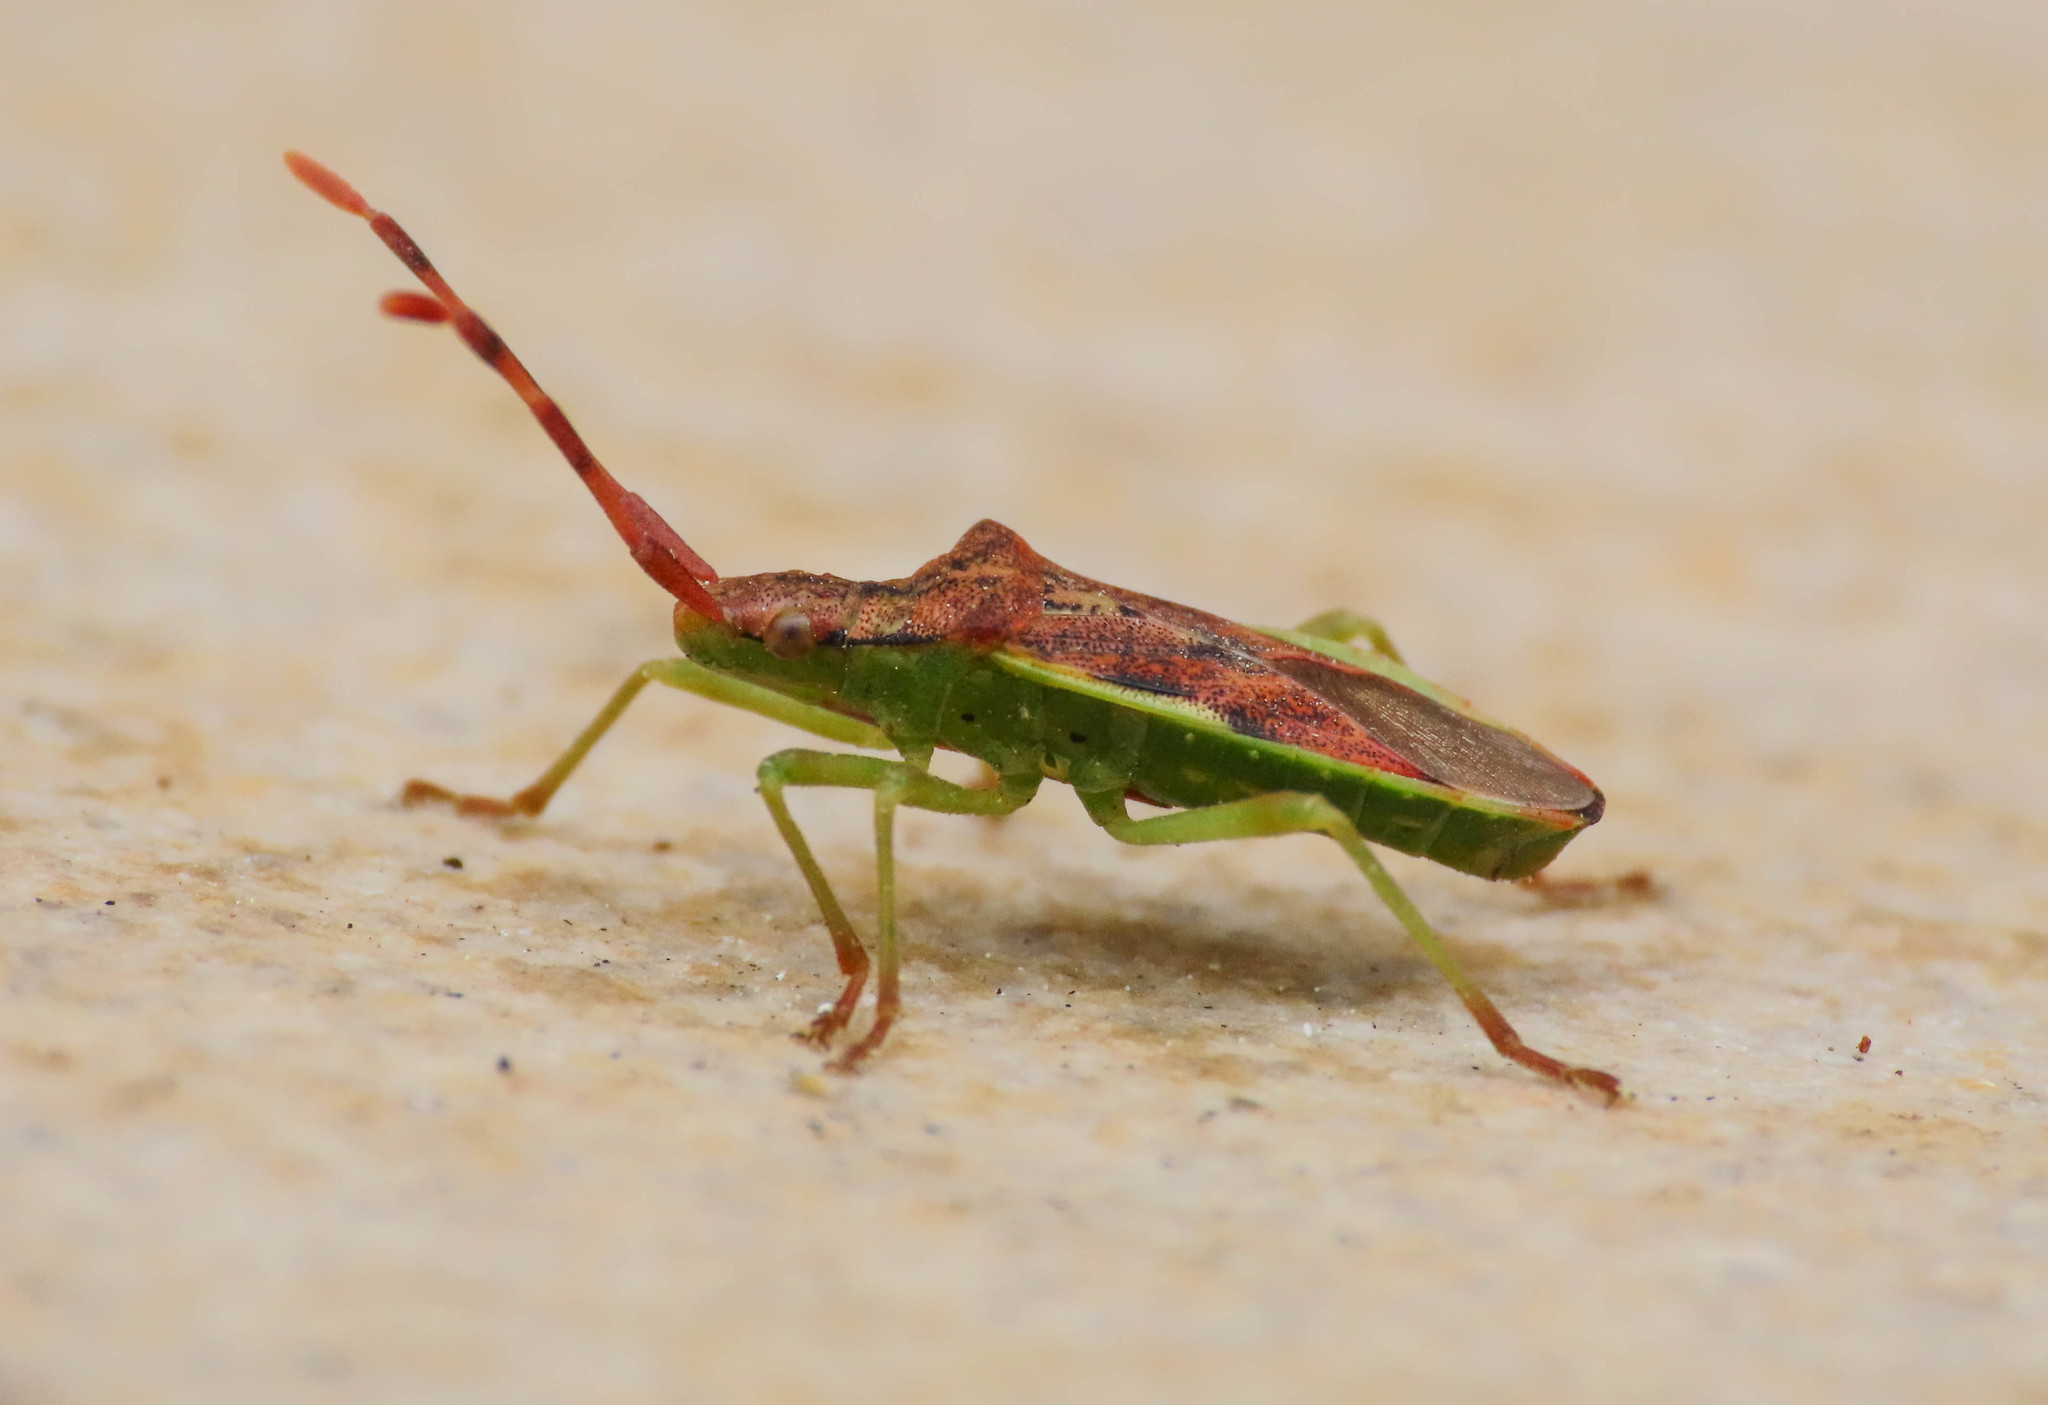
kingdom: Animalia
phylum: Arthropoda
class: Insecta
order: Hemiptera
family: Coreidae
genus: Gonocerus
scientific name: Gonocerus juniperi
